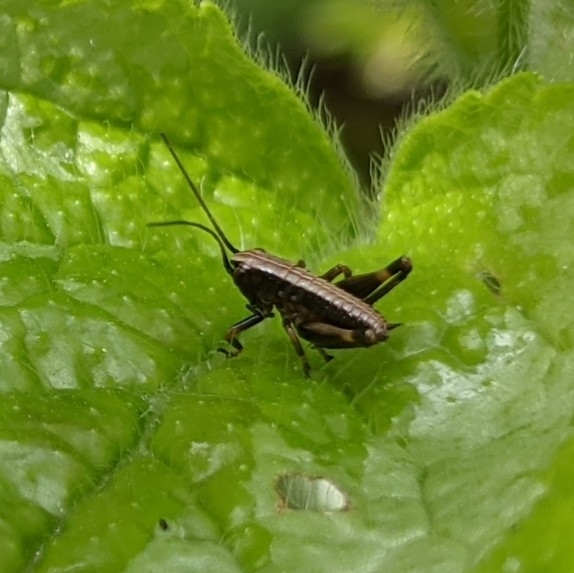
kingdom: Animalia
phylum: Arthropoda
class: Insecta
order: Orthoptera
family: Tettigoniidae
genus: Pholidoptera
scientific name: Pholidoptera griseoaptera
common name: Dark bush-cricket
